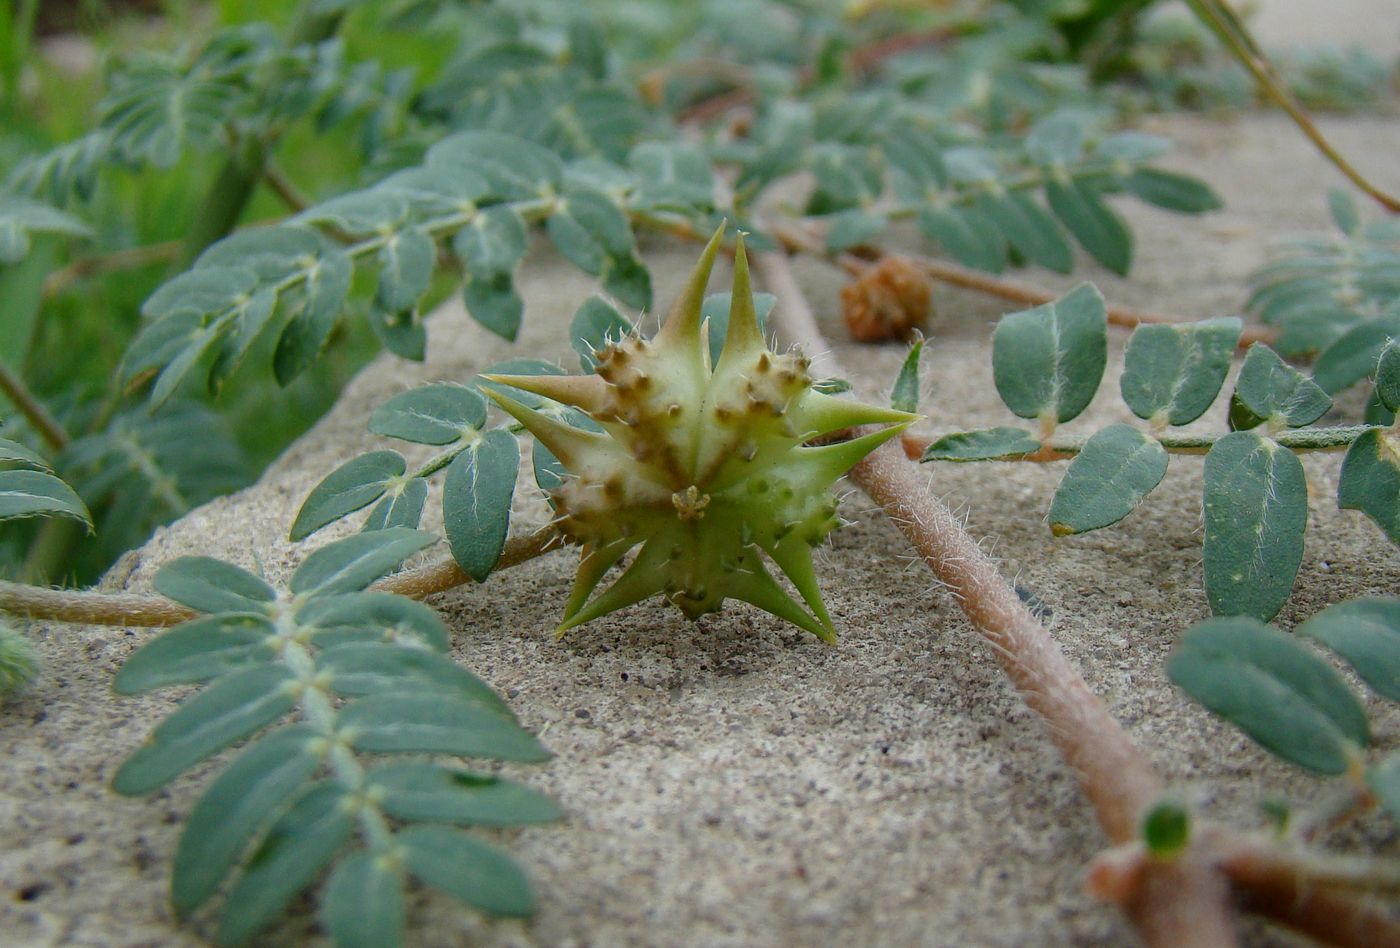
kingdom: Plantae
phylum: Tracheophyta
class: Magnoliopsida
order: Zygophyllales
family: Zygophyllaceae
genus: Tribulus
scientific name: Tribulus terrestris
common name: Puncturevine
